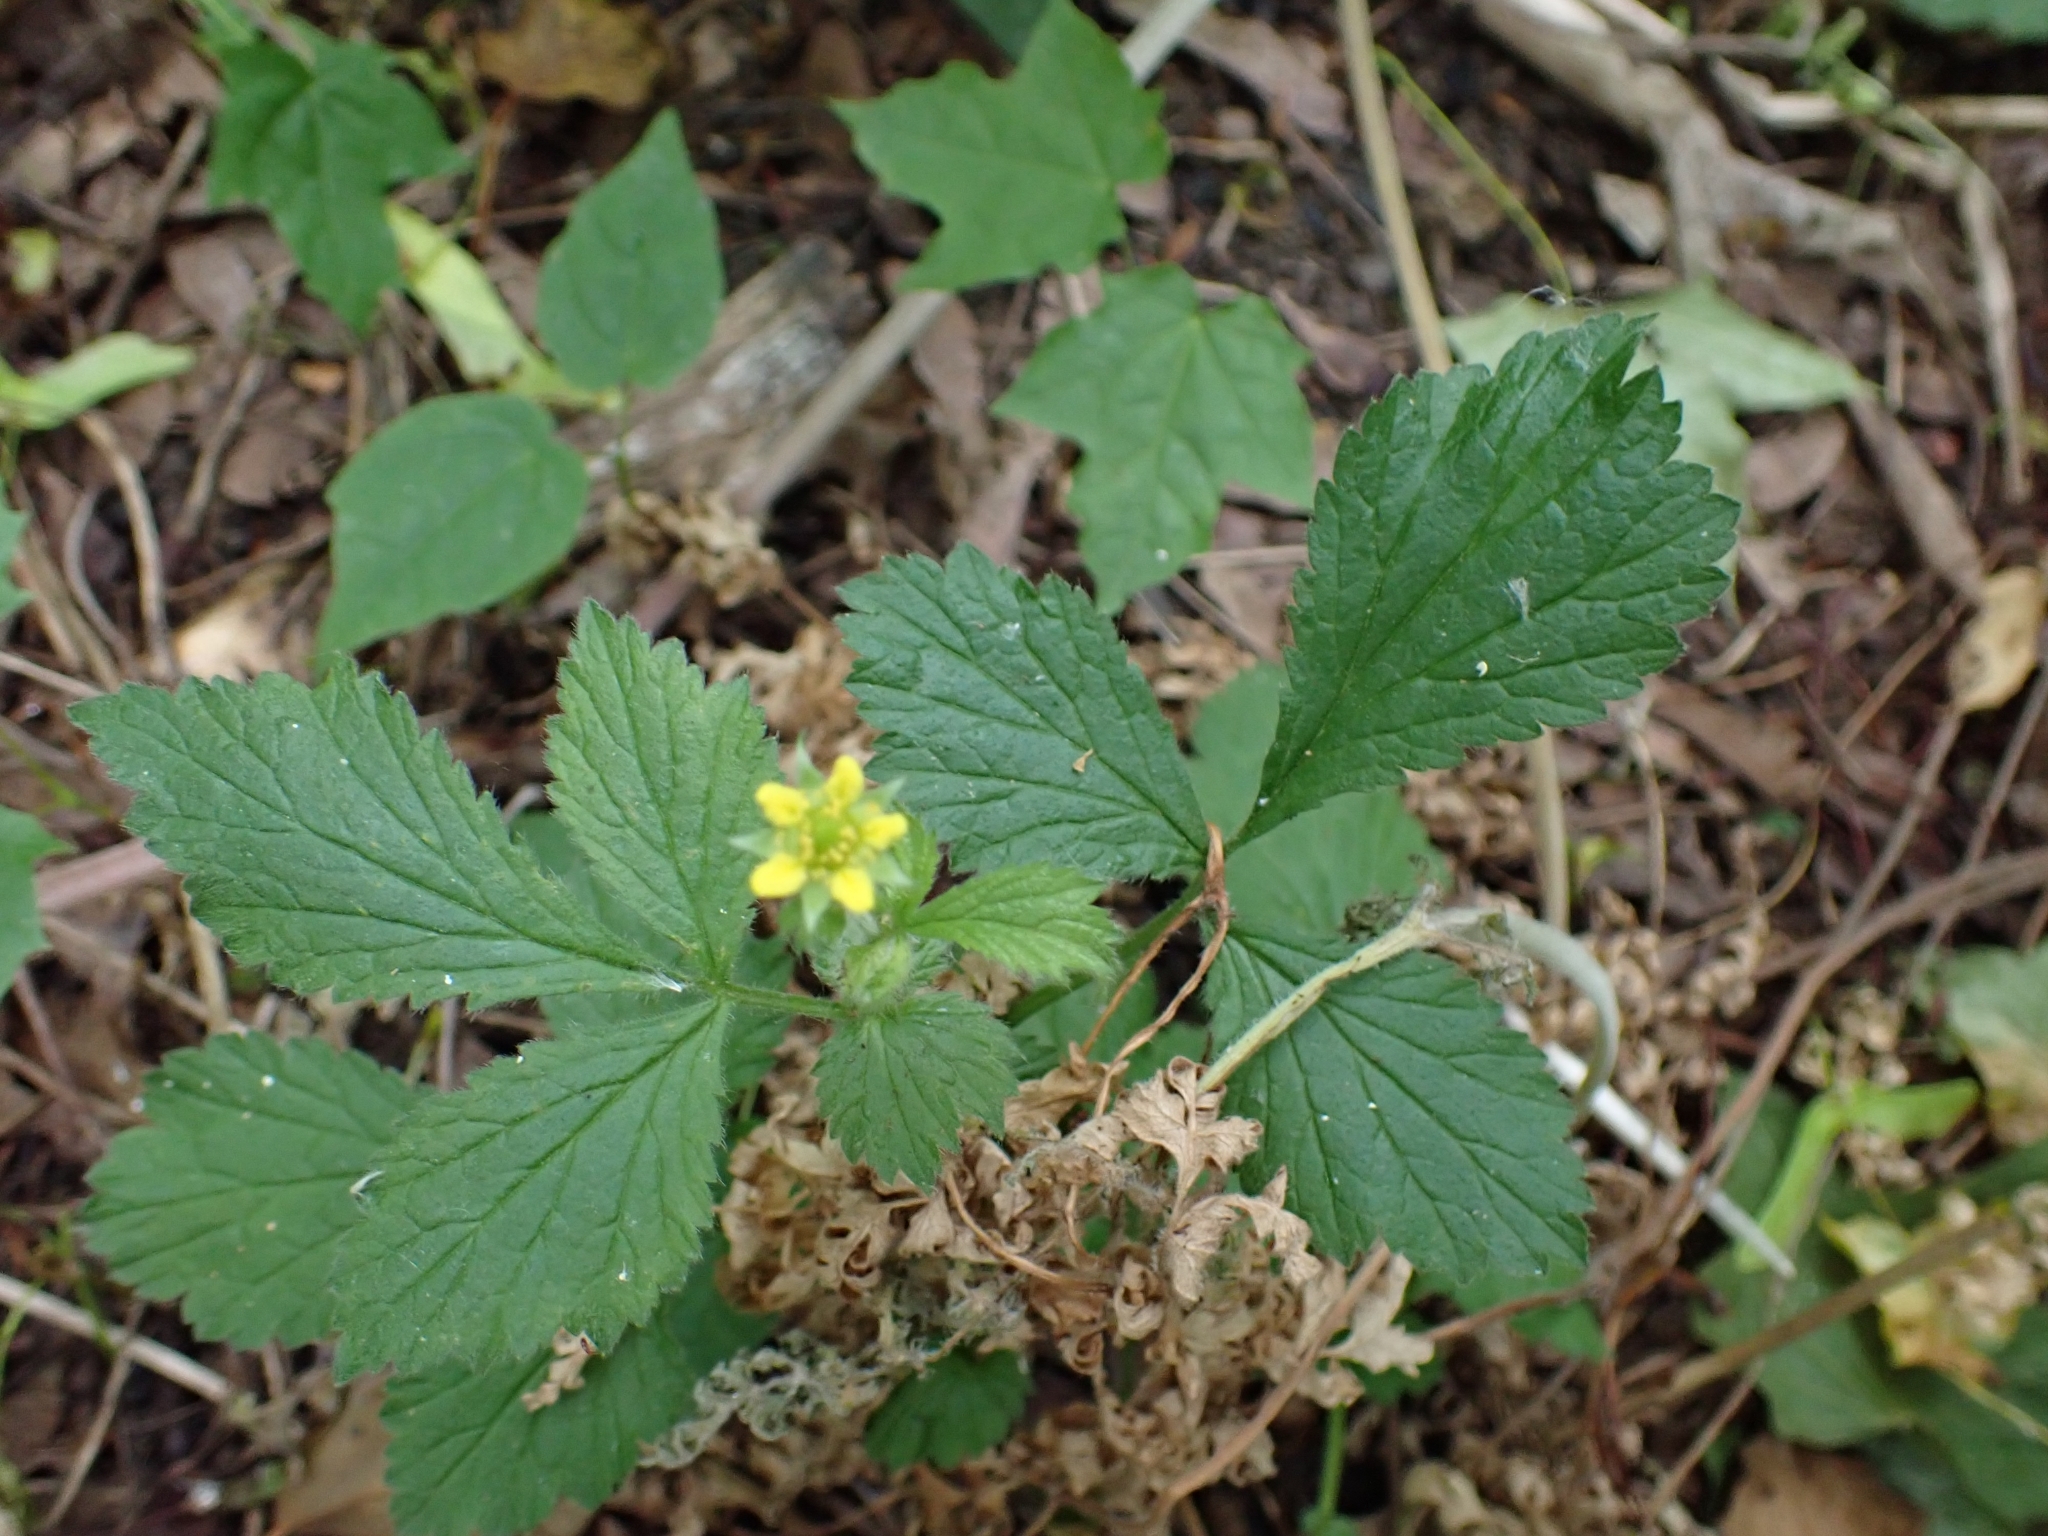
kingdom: Plantae
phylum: Tracheophyta
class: Magnoliopsida
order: Rosales
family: Rosaceae
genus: Geum
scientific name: Geum urbanum
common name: Wood avens
